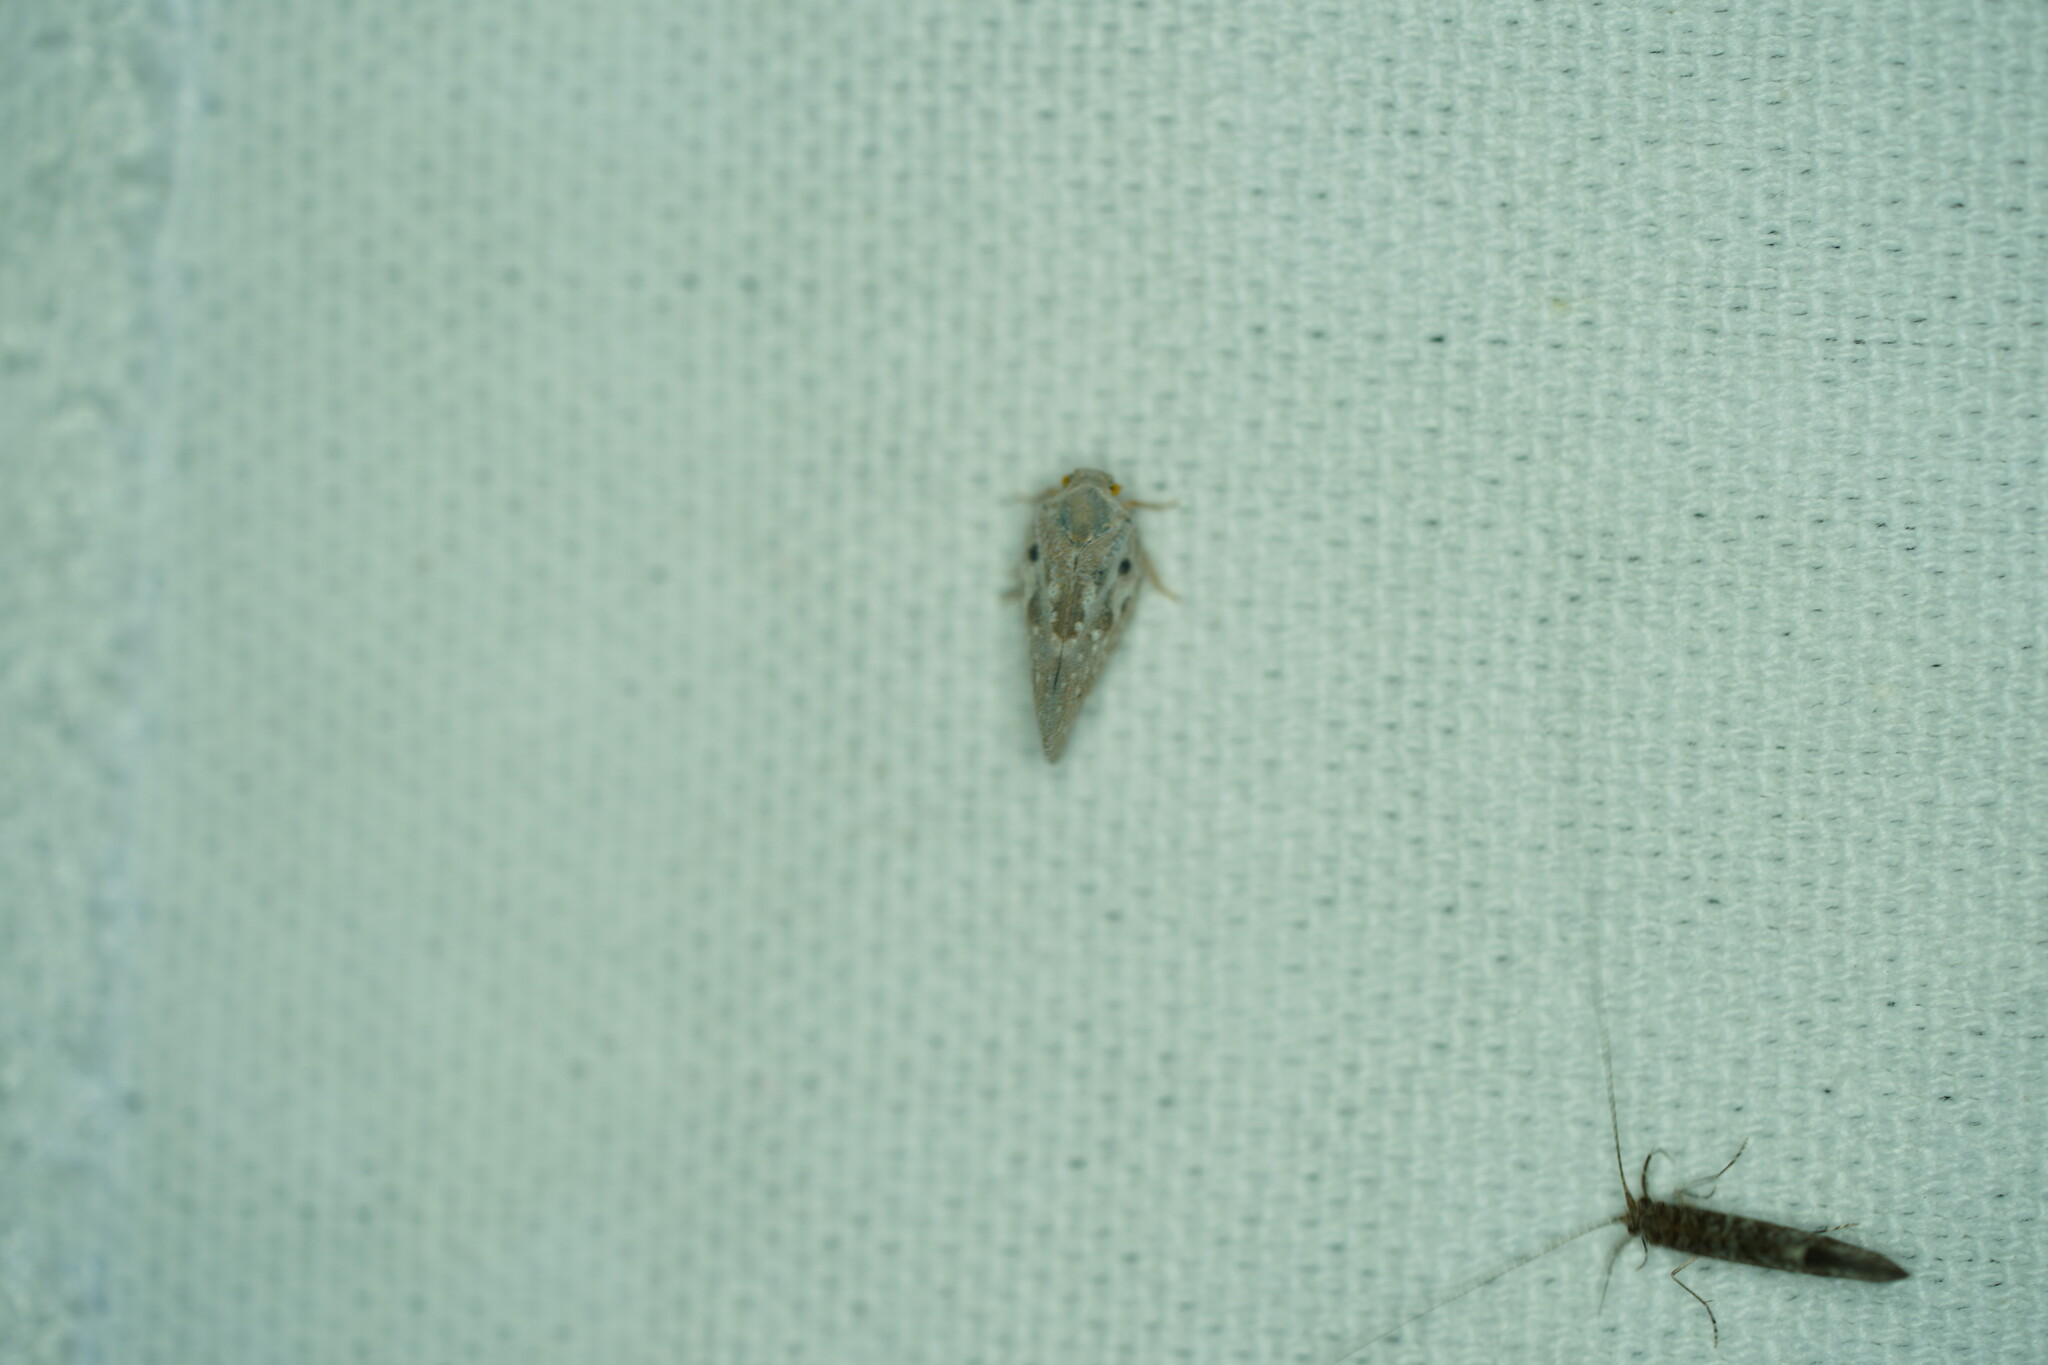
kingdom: Animalia
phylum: Arthropoda
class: Insecta
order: Hemiptera
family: Flatidae
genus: Metcalfa
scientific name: Metcalfa pruinosa
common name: Citrus flatid planthopper
